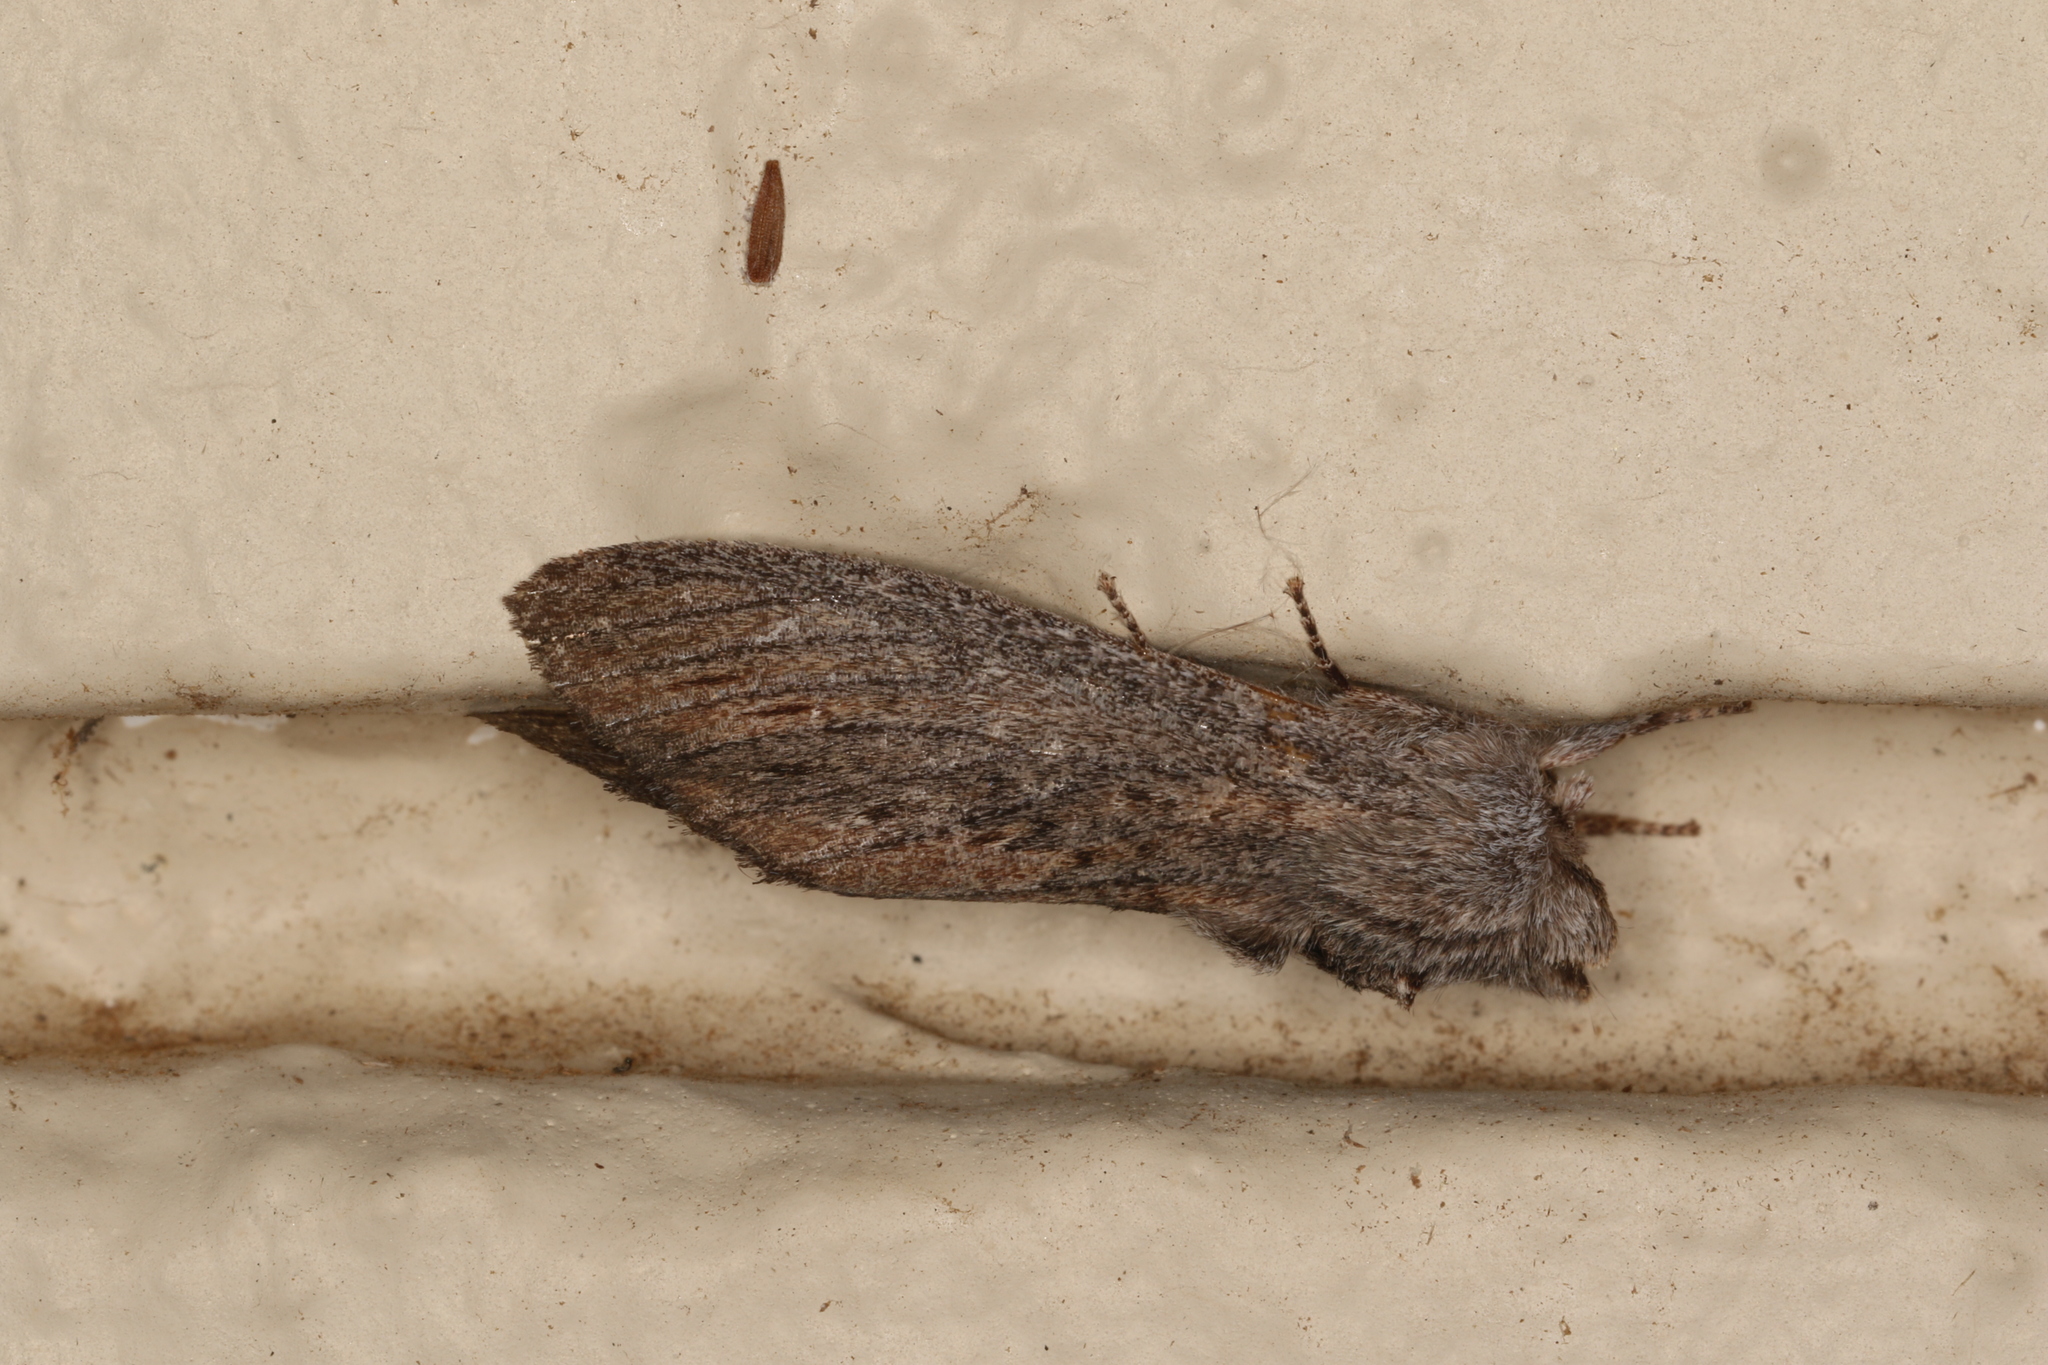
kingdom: Animalia
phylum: Arthropoda
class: Insecta
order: Lepidoptera
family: Notodontidae
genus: Destolmia
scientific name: Destolmia lineata
